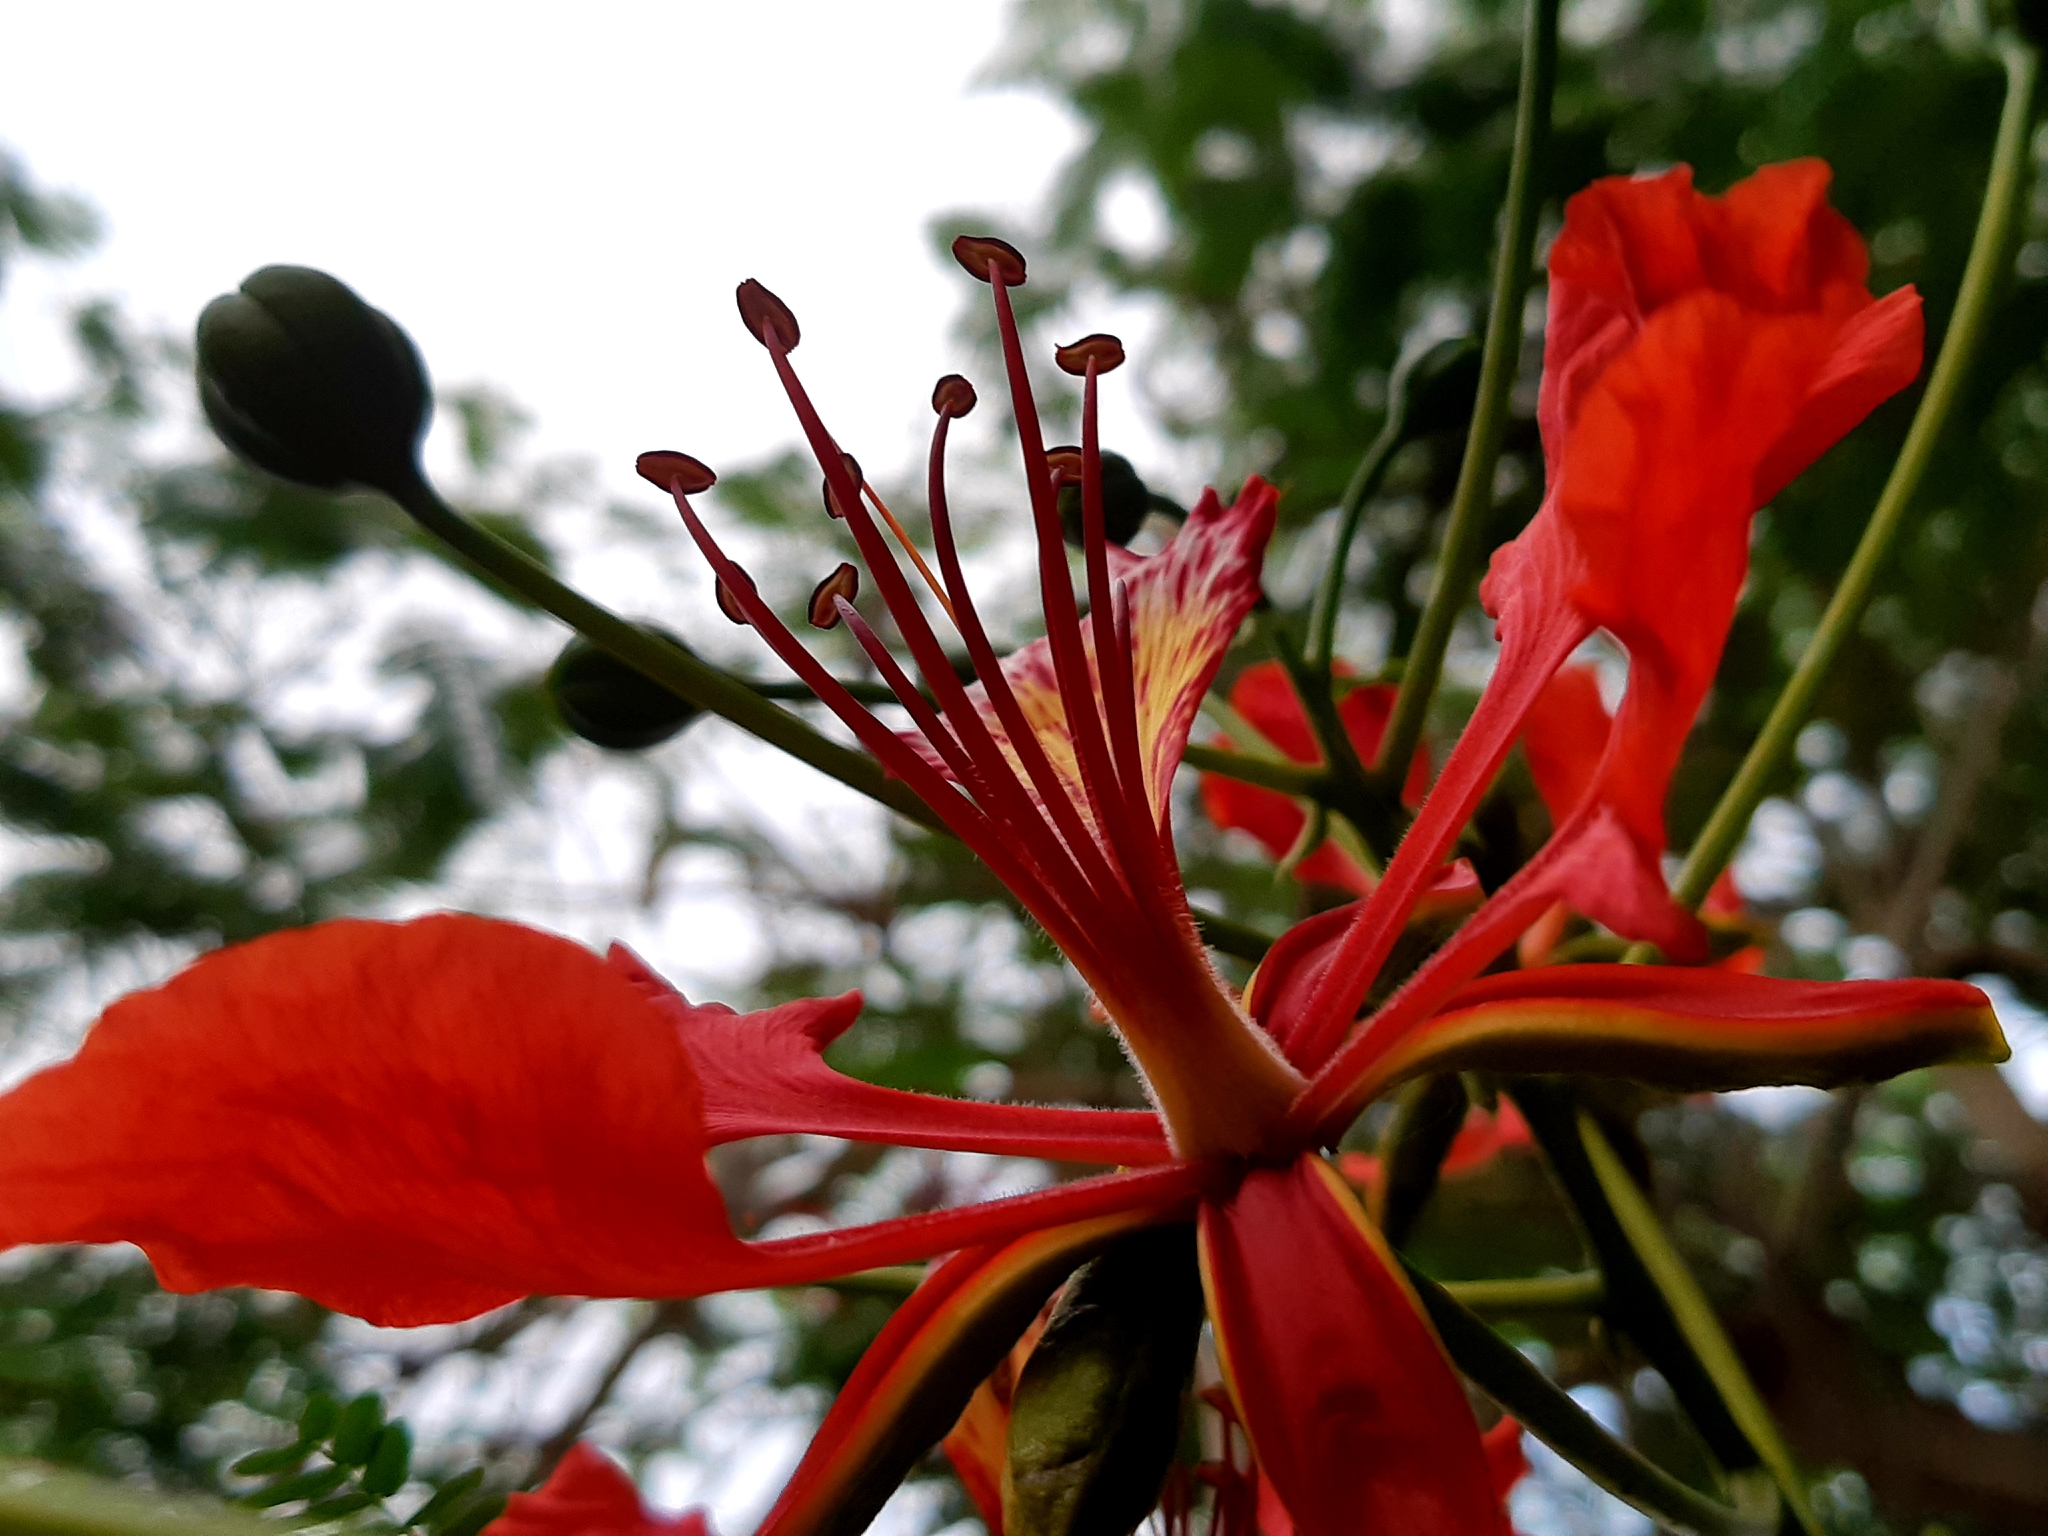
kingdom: Plantae
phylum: Tracheophyta
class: Magnoliopsida
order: Fabales
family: Fabaceae
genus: Delonix
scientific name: Delonix regia
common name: Royal poinciana
